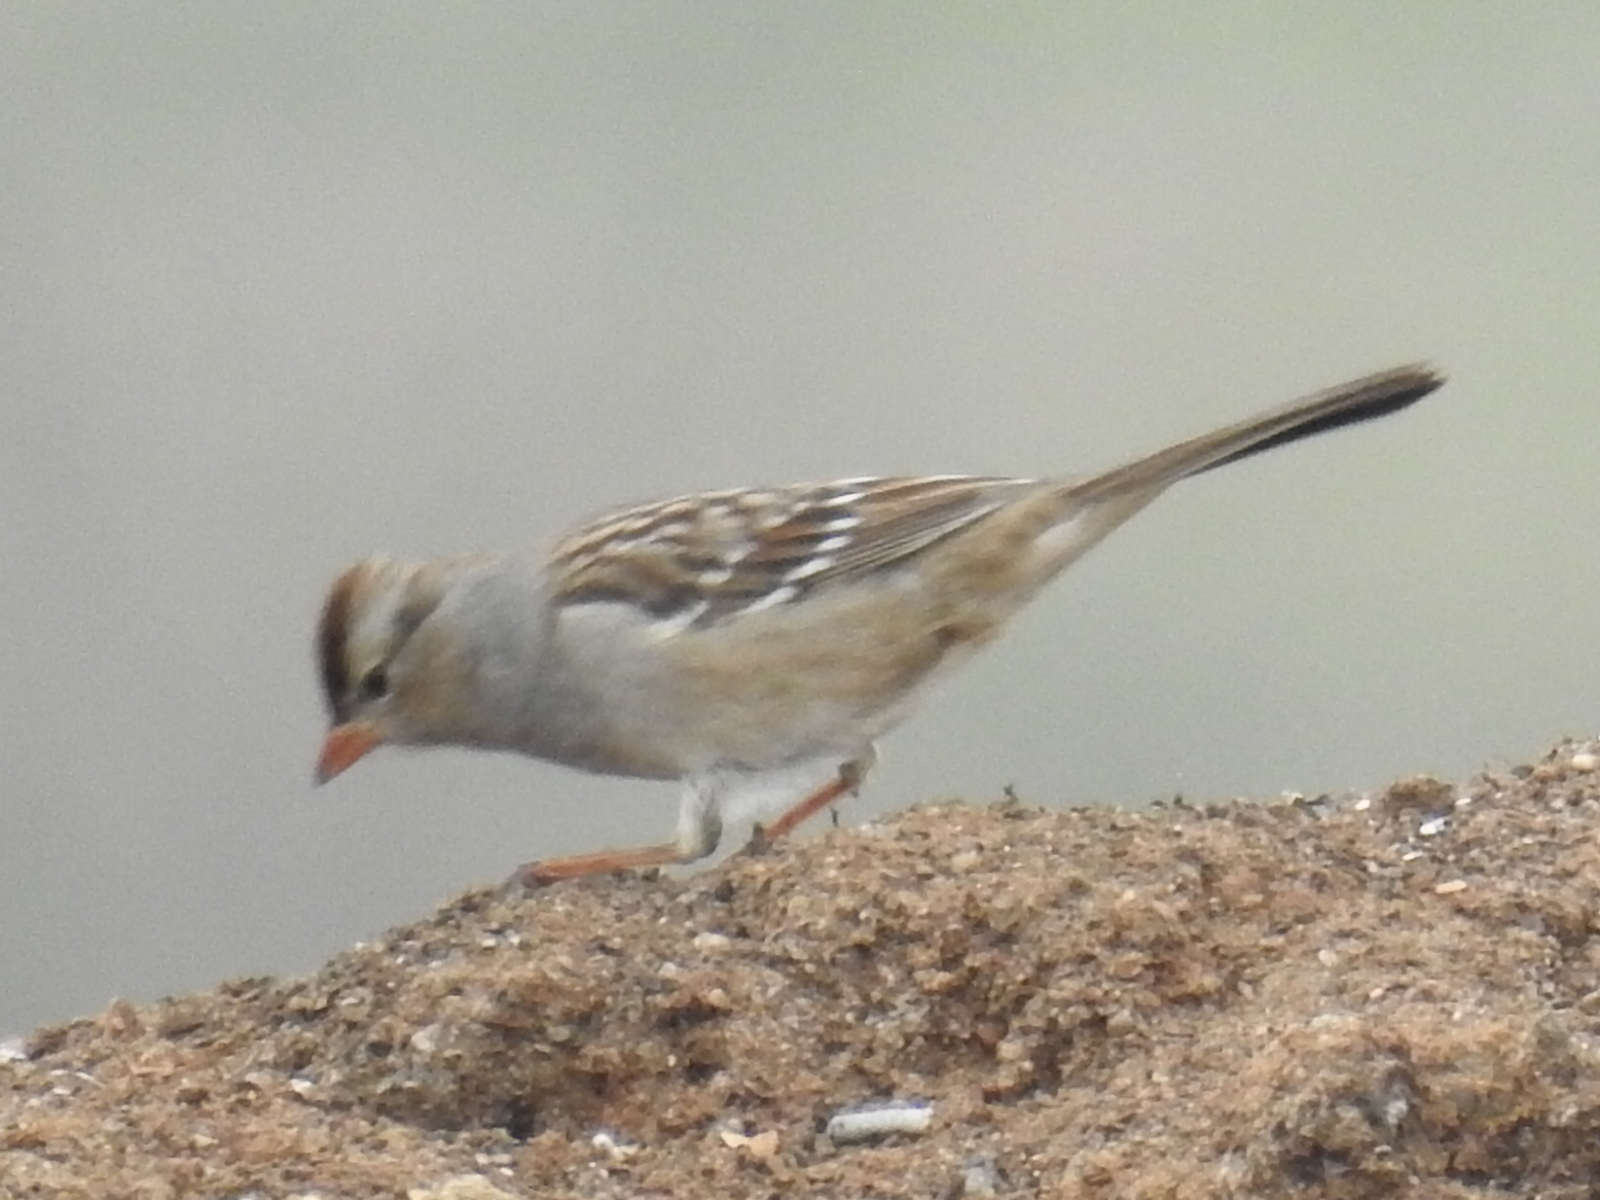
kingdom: Animalia
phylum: Chordata
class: Aves
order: Passeriformes
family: Passerellidae
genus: Zonotrichia
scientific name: Zonotrichia leucophrys
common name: White-crowned sparrow
